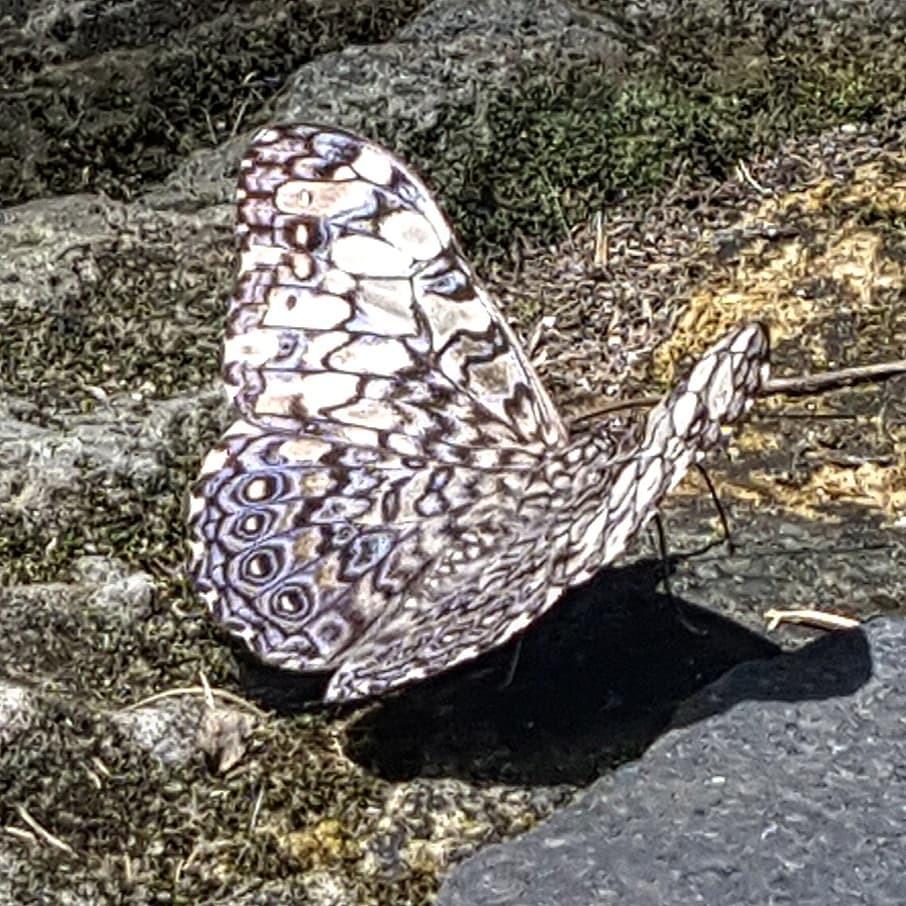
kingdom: Animalia
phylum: Arthropoda
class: Insecta
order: Lepidoptera
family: Nymphalidae
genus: Hamadryas
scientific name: Hamadryas iphthime
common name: Brownish cracker
